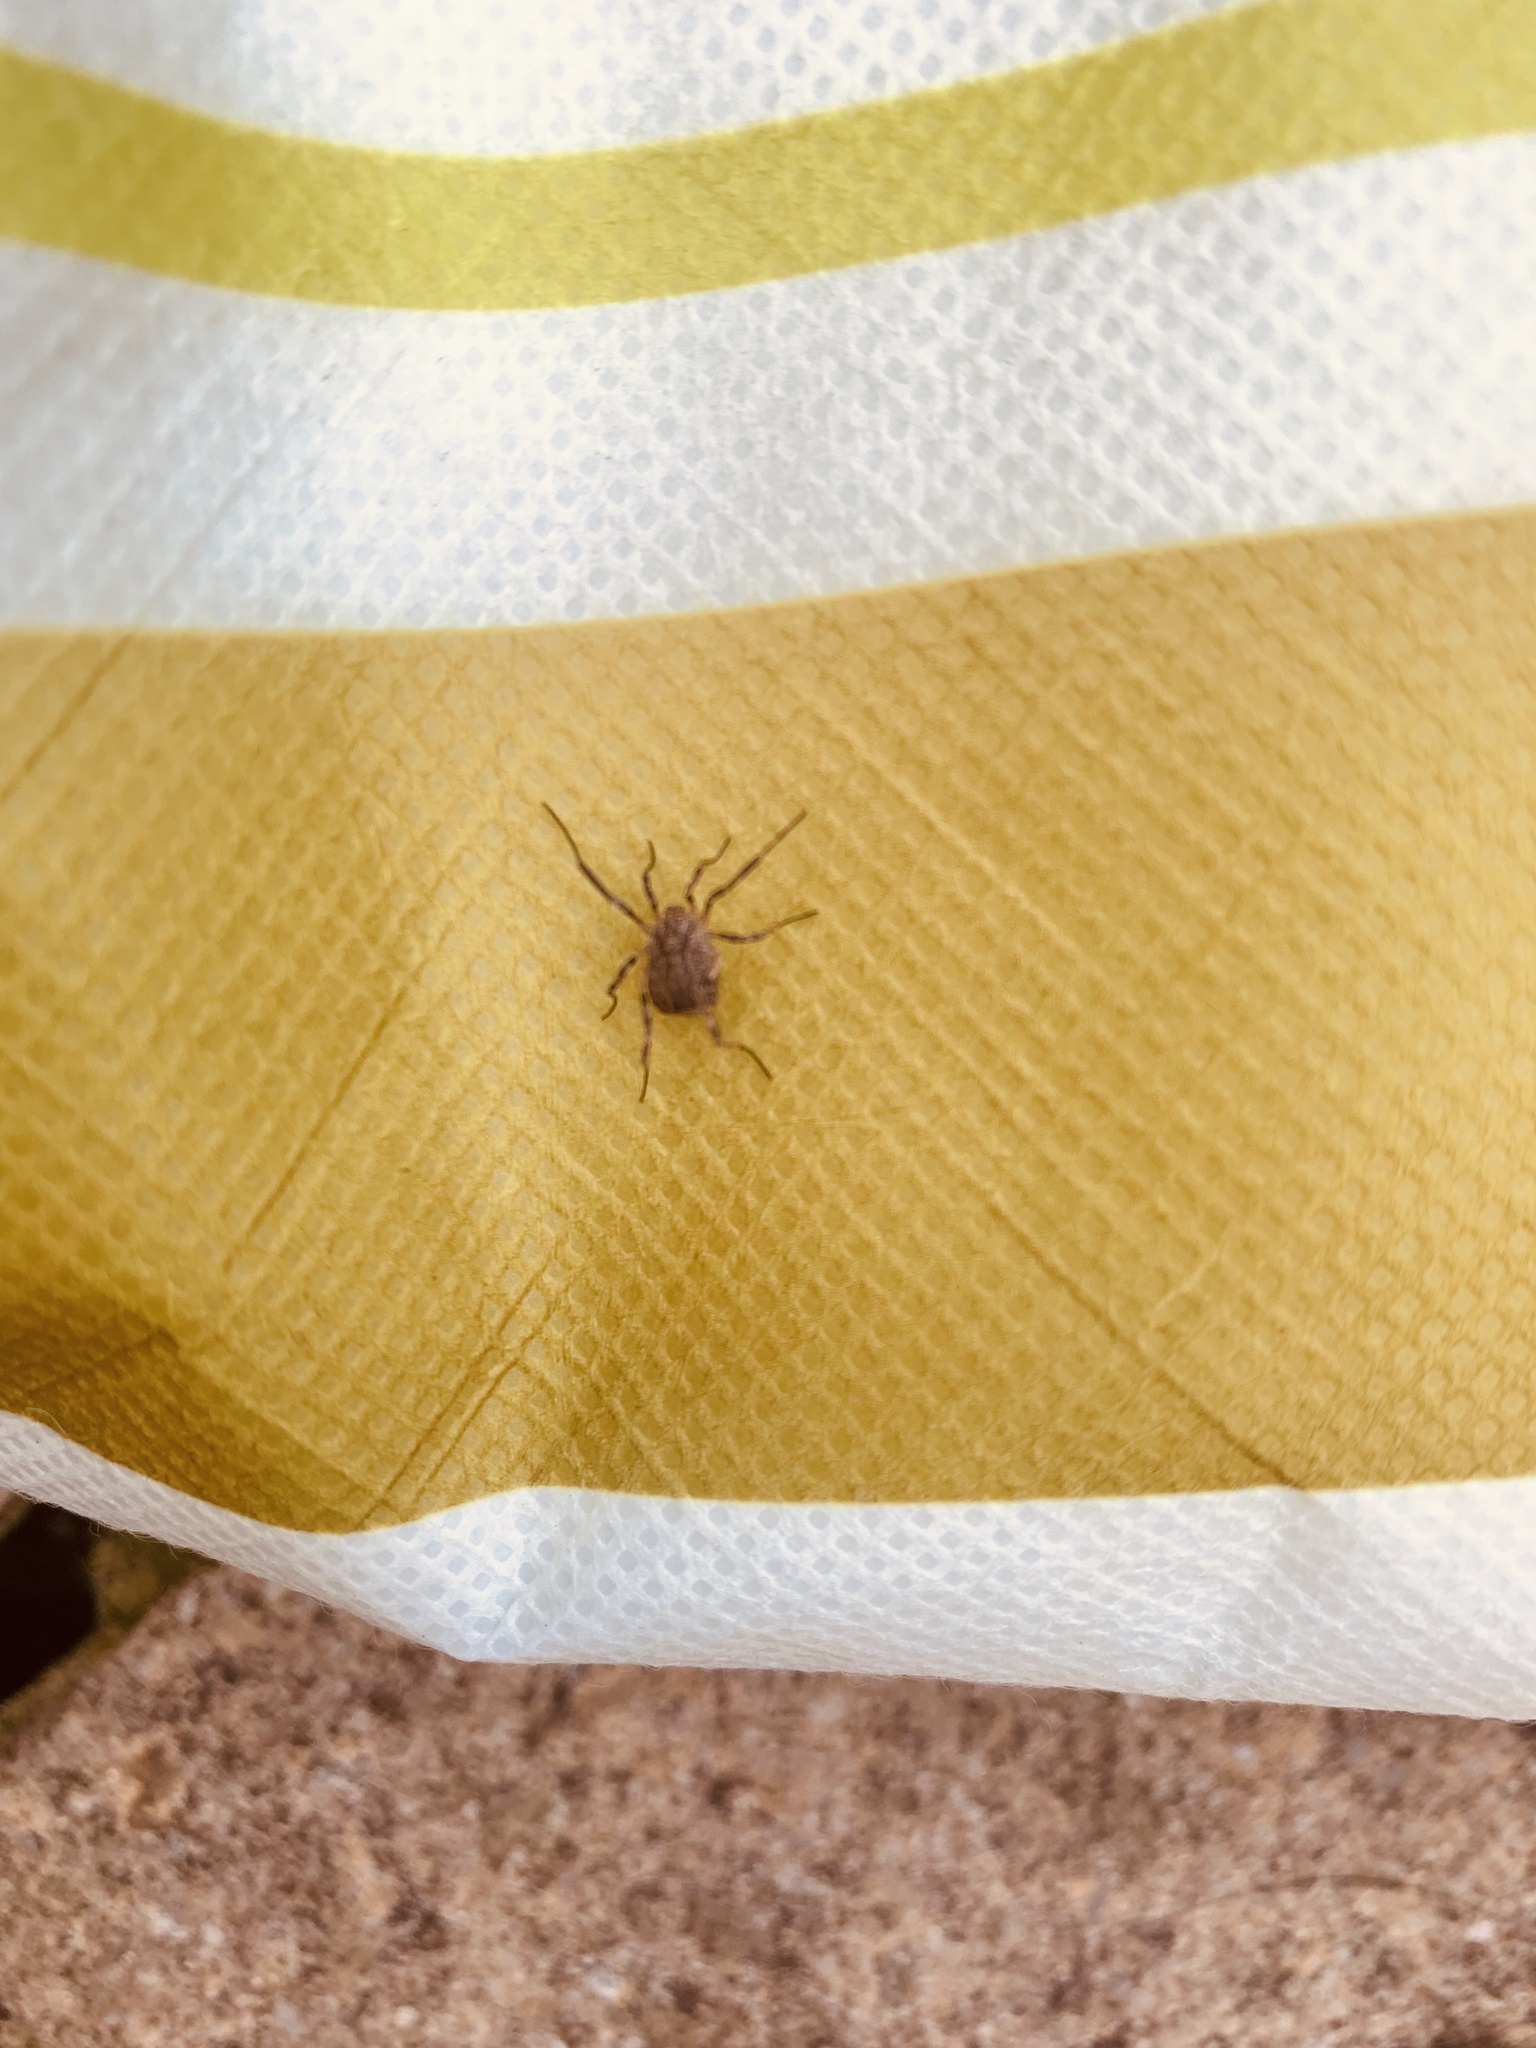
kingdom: Animalia
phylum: Arthropoda
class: Arachnida
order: Opiliones
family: Phalangiidae
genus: Odiellus
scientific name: Odiellus spinosus
